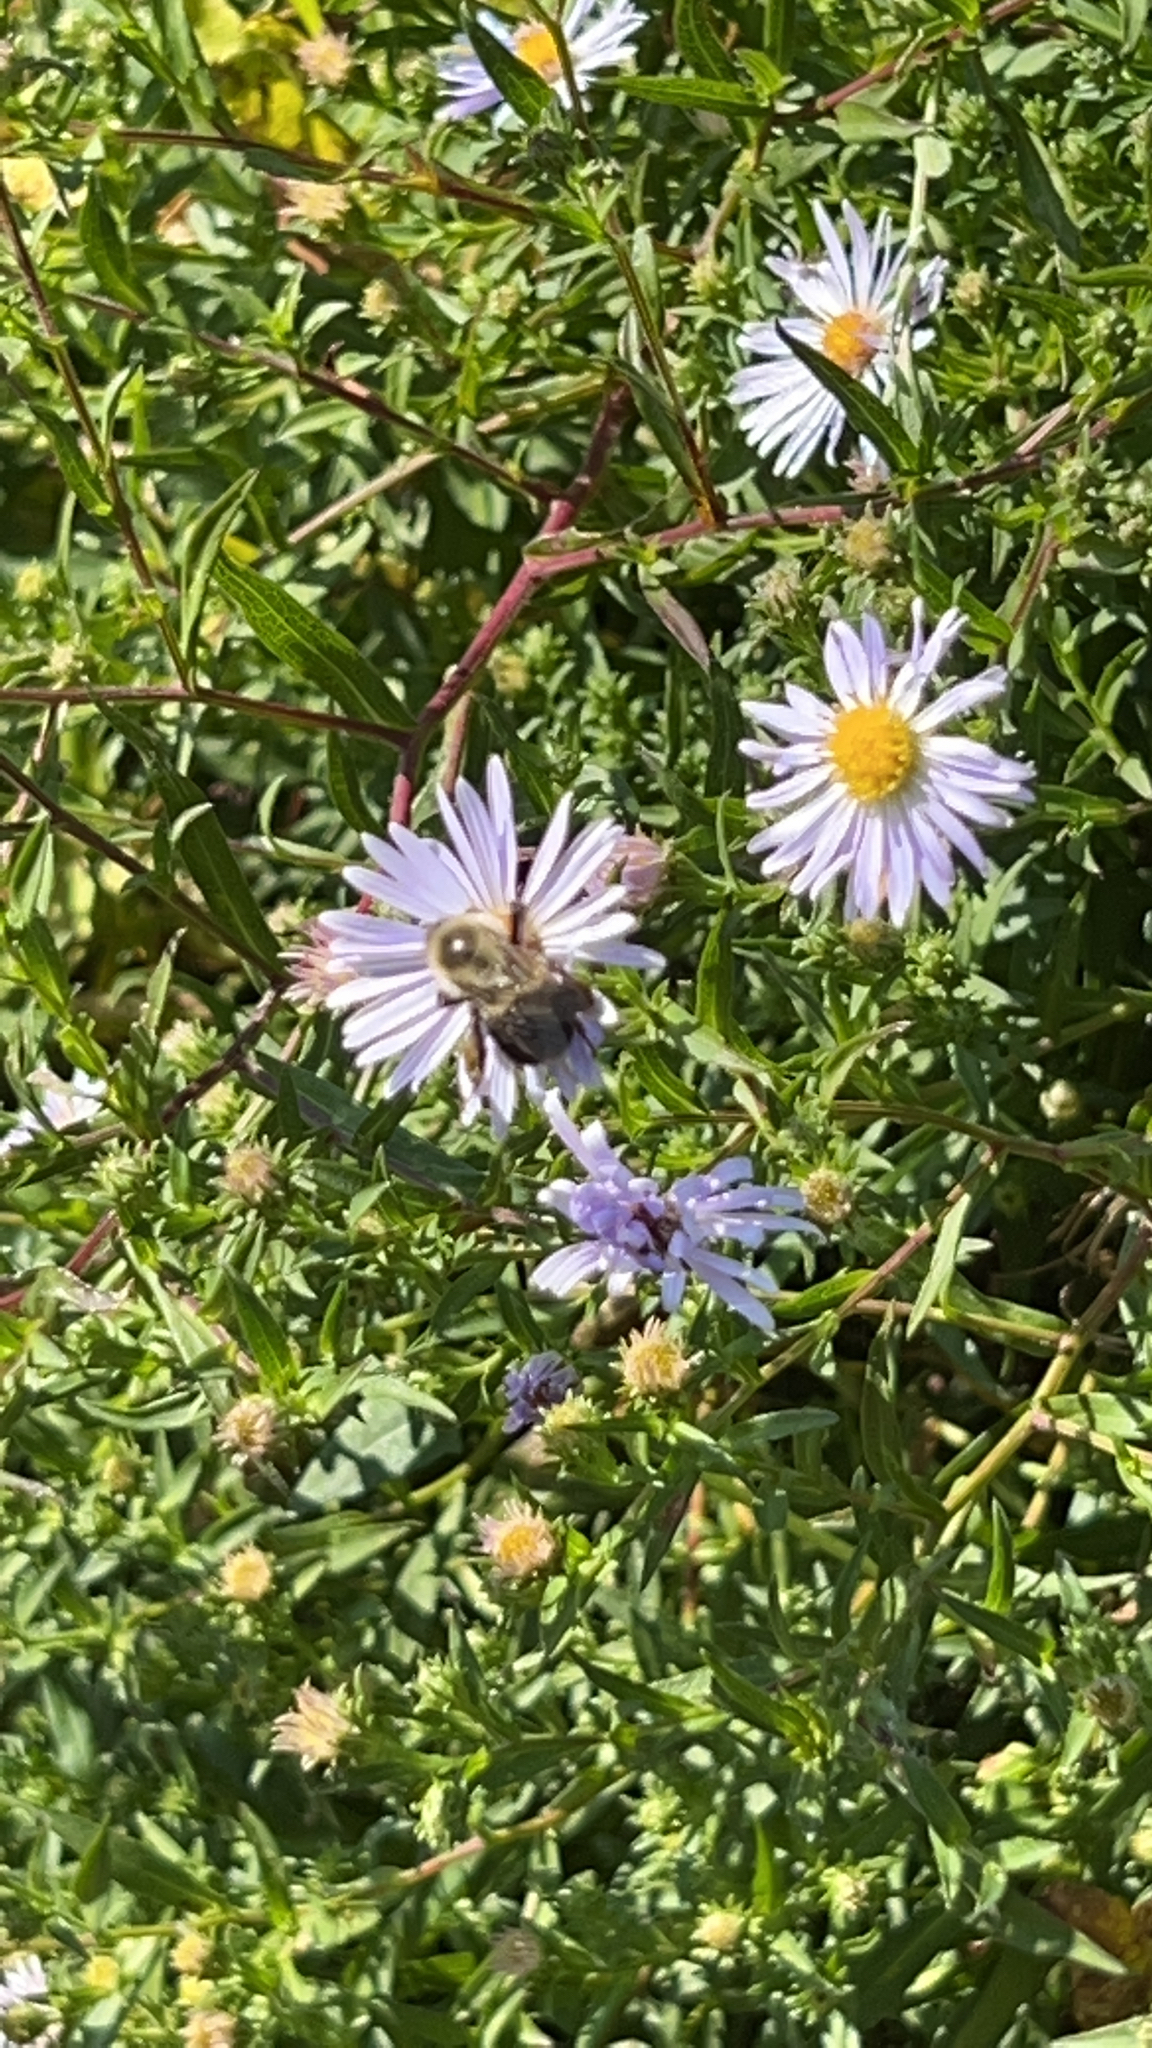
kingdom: Animalia
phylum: Arthropoda
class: Insecta
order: Hymenoptera
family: Apidae
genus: Bombus
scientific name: Bombus impatiens
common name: Common eastern bumble bee
